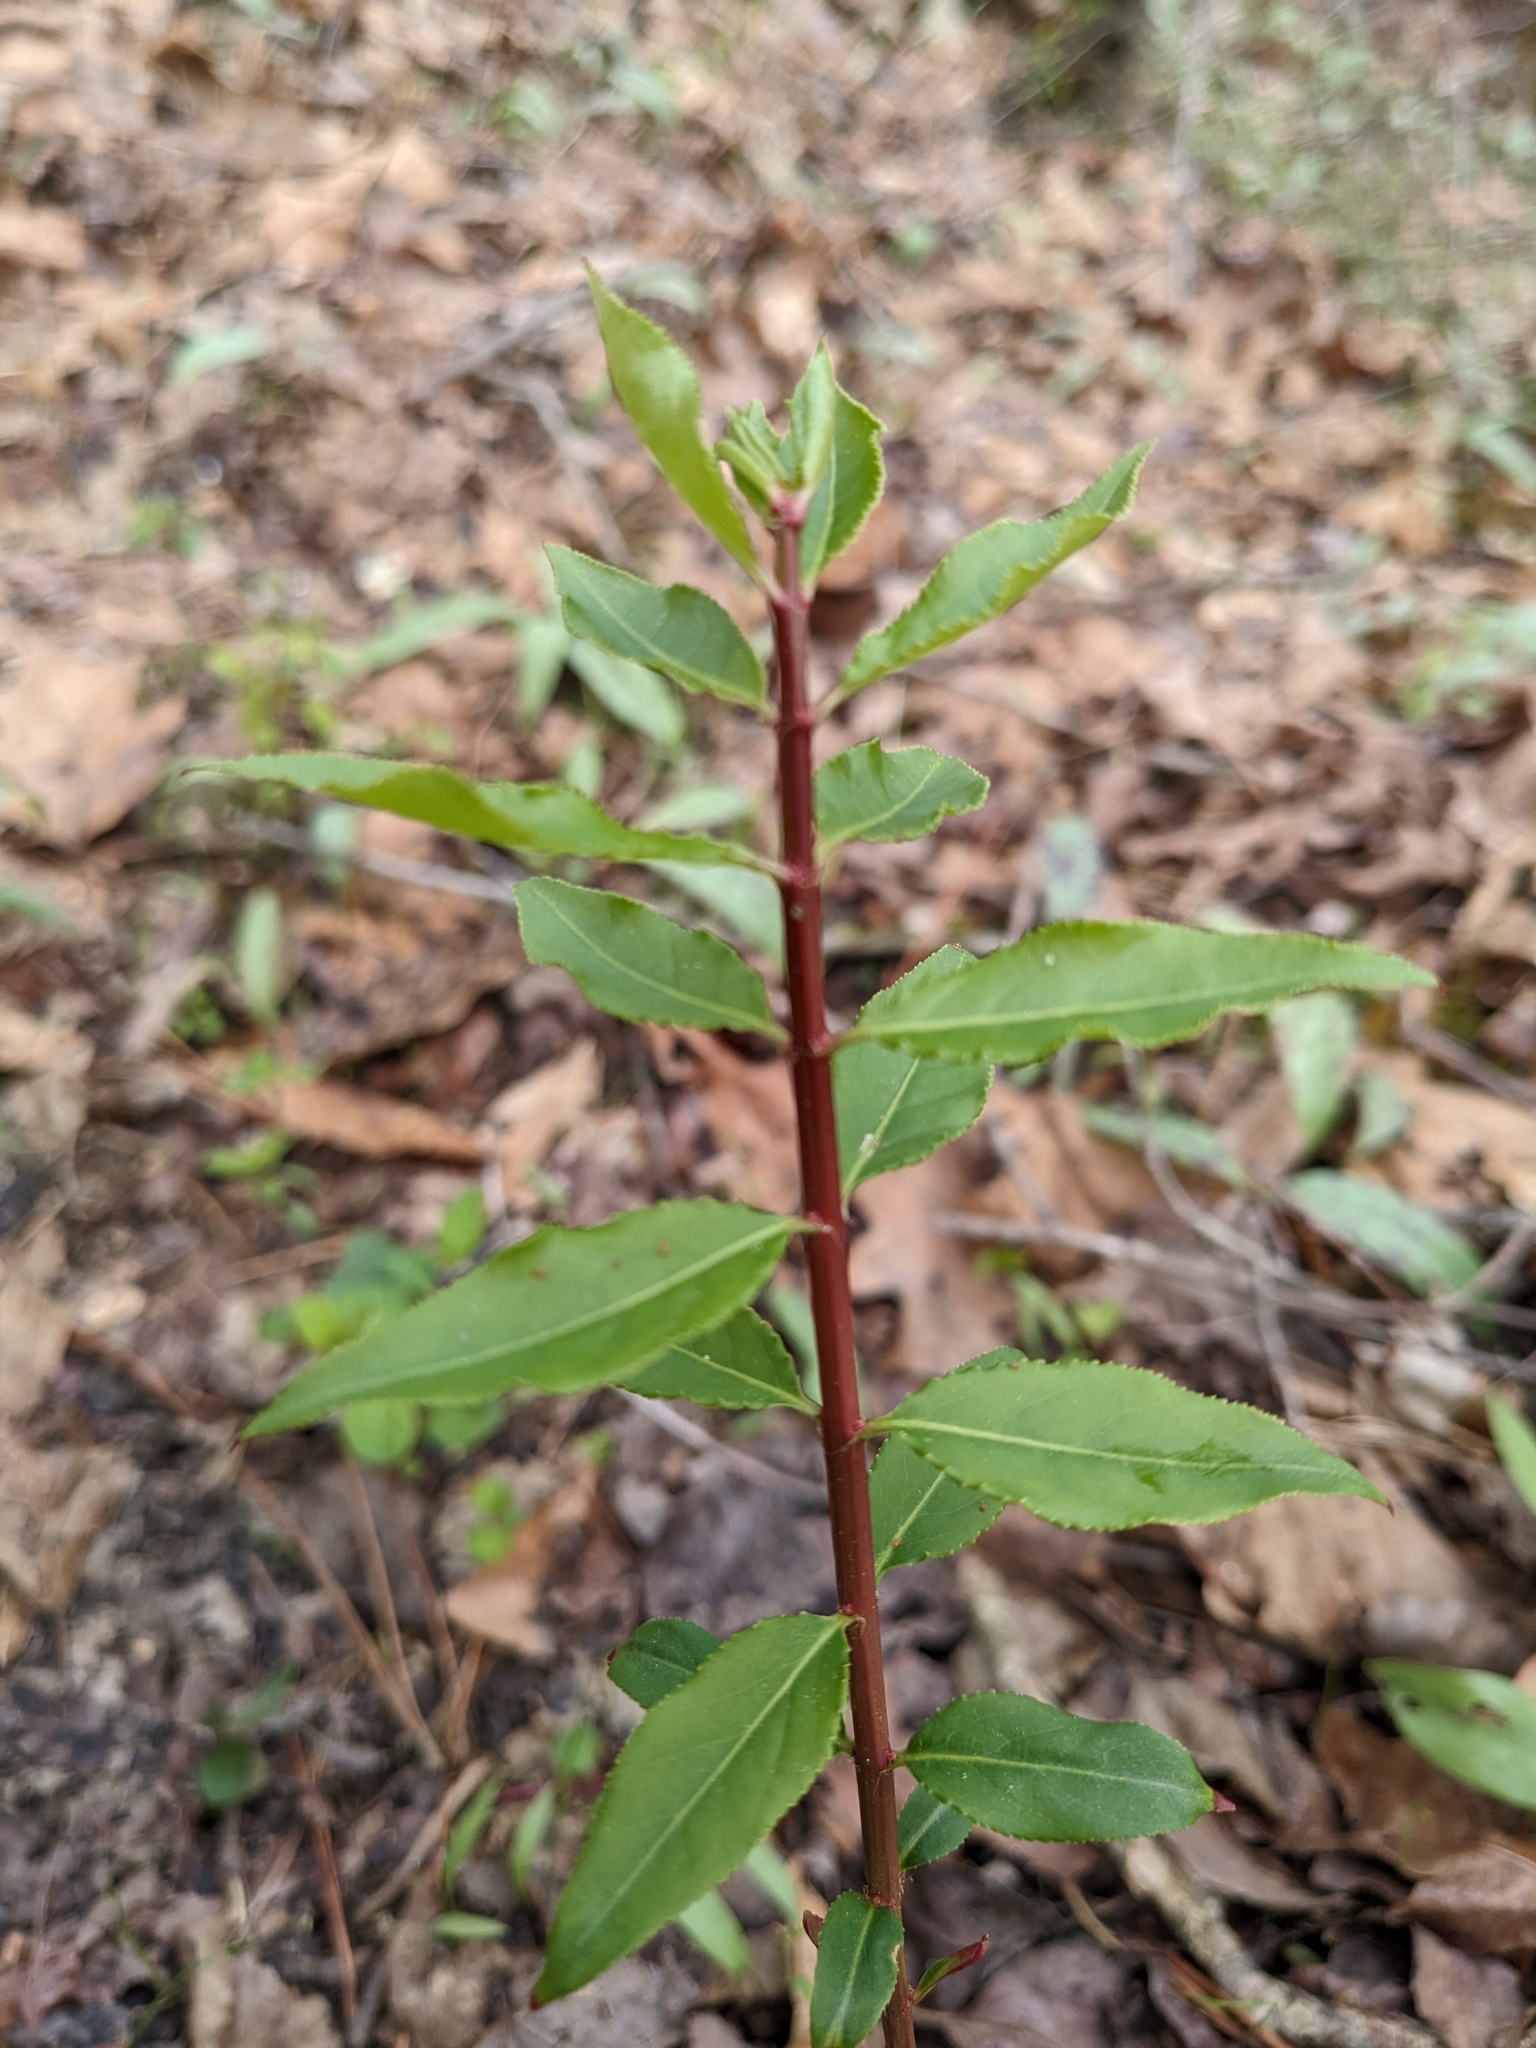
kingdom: Plantae
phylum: Tracheophyta
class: Magnoliopsida
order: Celastrales
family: Celastraceae
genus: Euonymus
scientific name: Euonymus alatus
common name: Winged euonymus
